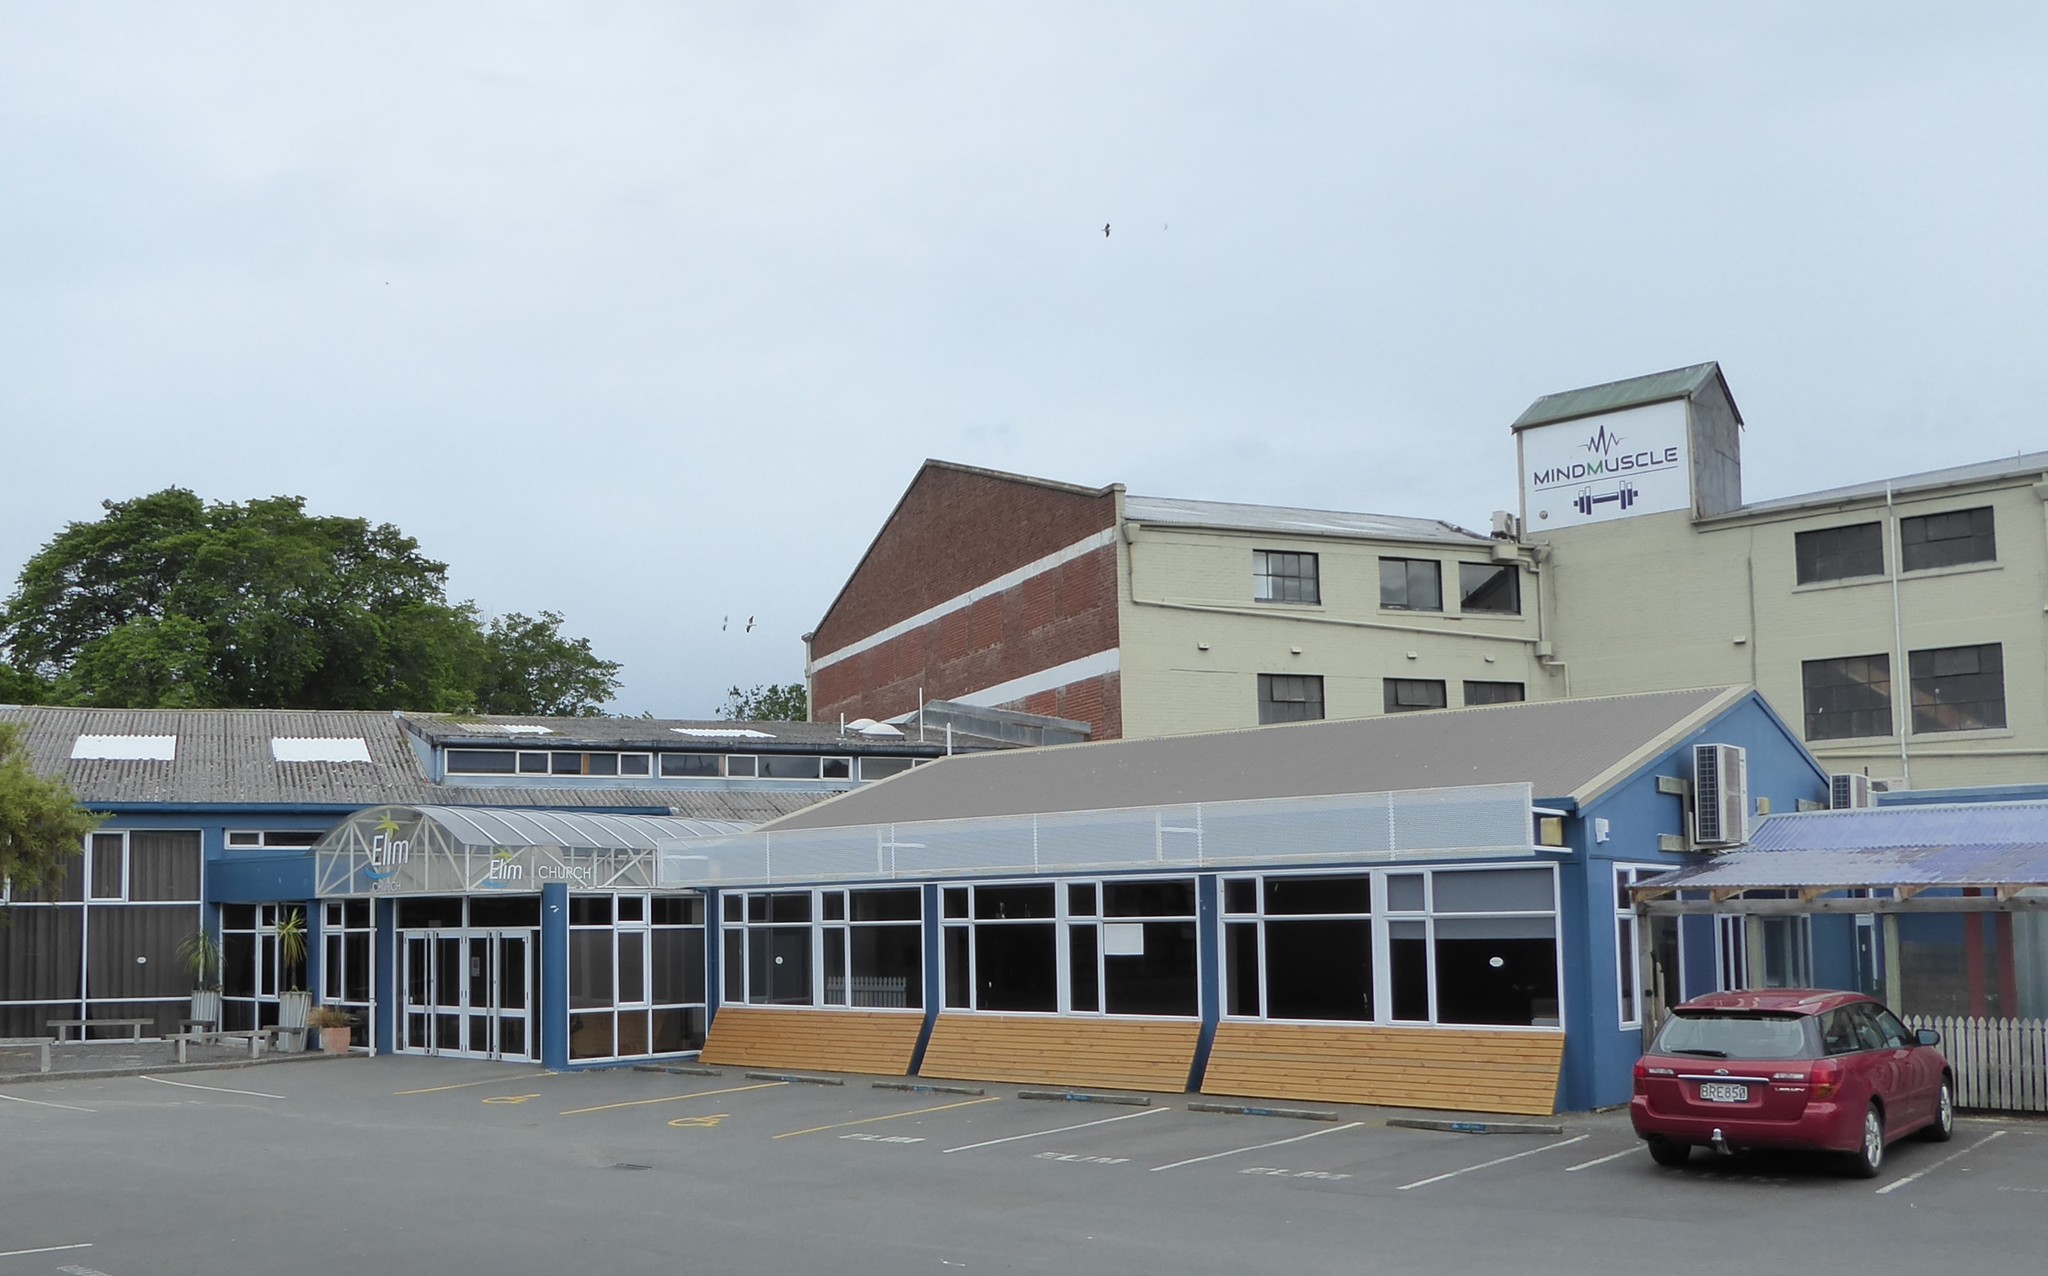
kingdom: Animalia
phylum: Chordata
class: Aves
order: Charadriiformes
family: Laridae
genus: Larus
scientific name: Larus dominicanus
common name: Kelp gull
